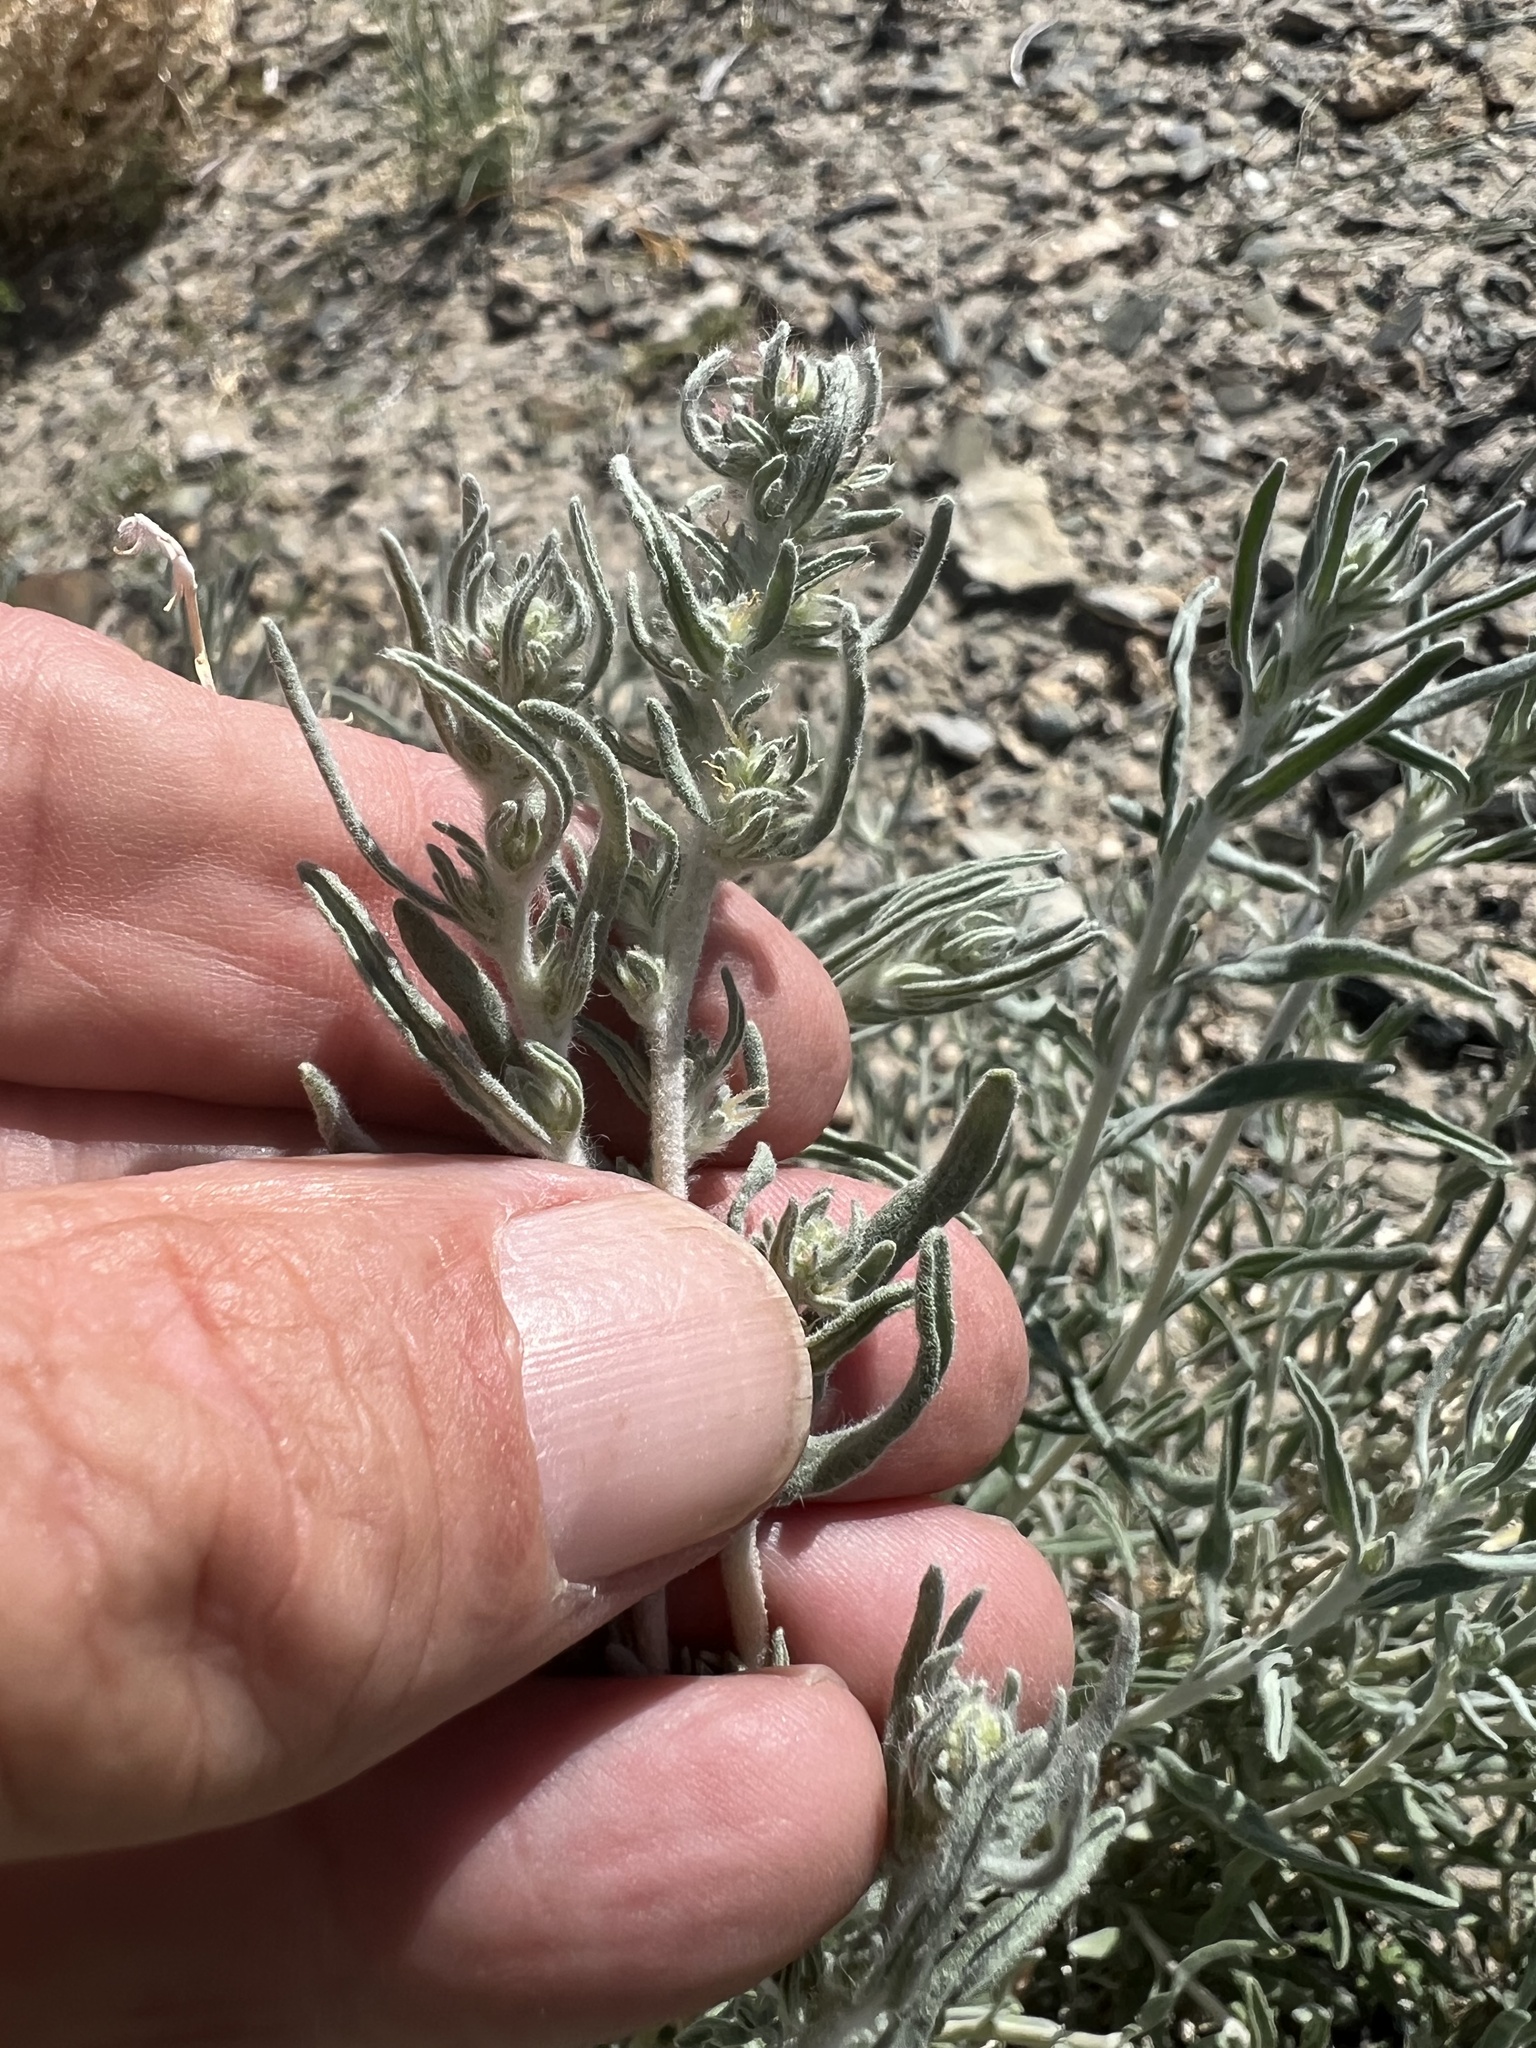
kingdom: Plantae
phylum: Tracheophyta
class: Magnoliopsida
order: Caryophyllales
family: Amaranthaceae
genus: Krascheninnikovia
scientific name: Krascheninnikovia lanata
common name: Winterfat
